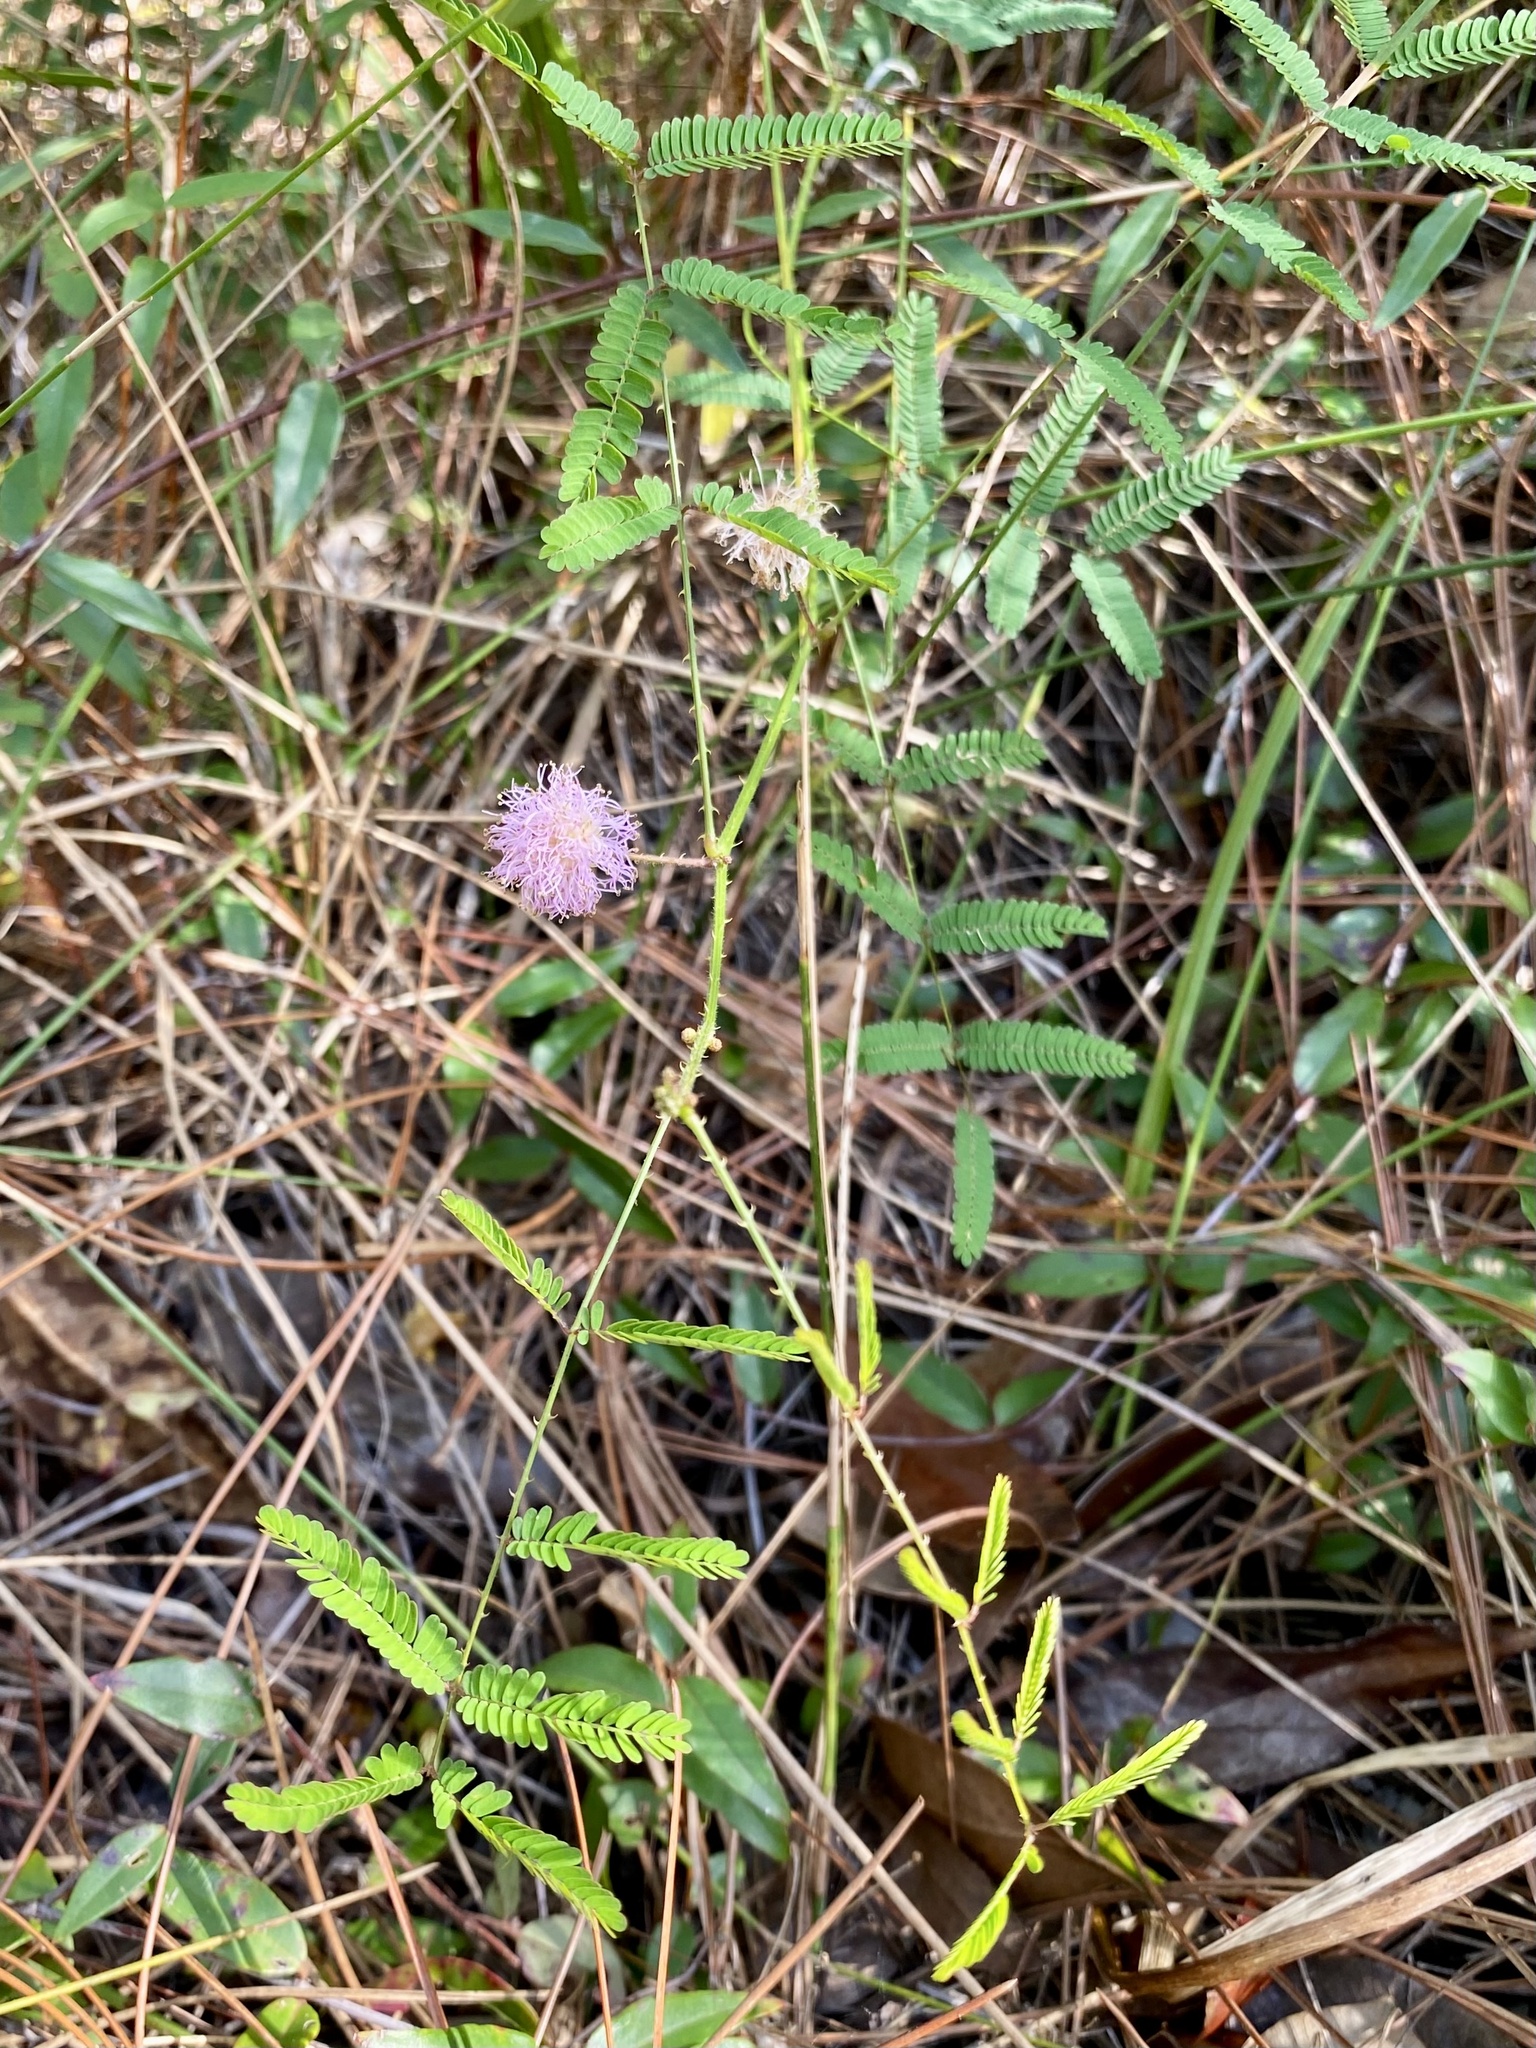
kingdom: Plantae
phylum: Tracheophyta
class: Magnoliopsida
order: Fabales
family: Fabaceae
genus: Mimosa
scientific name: Mimosa quadrivalvis
